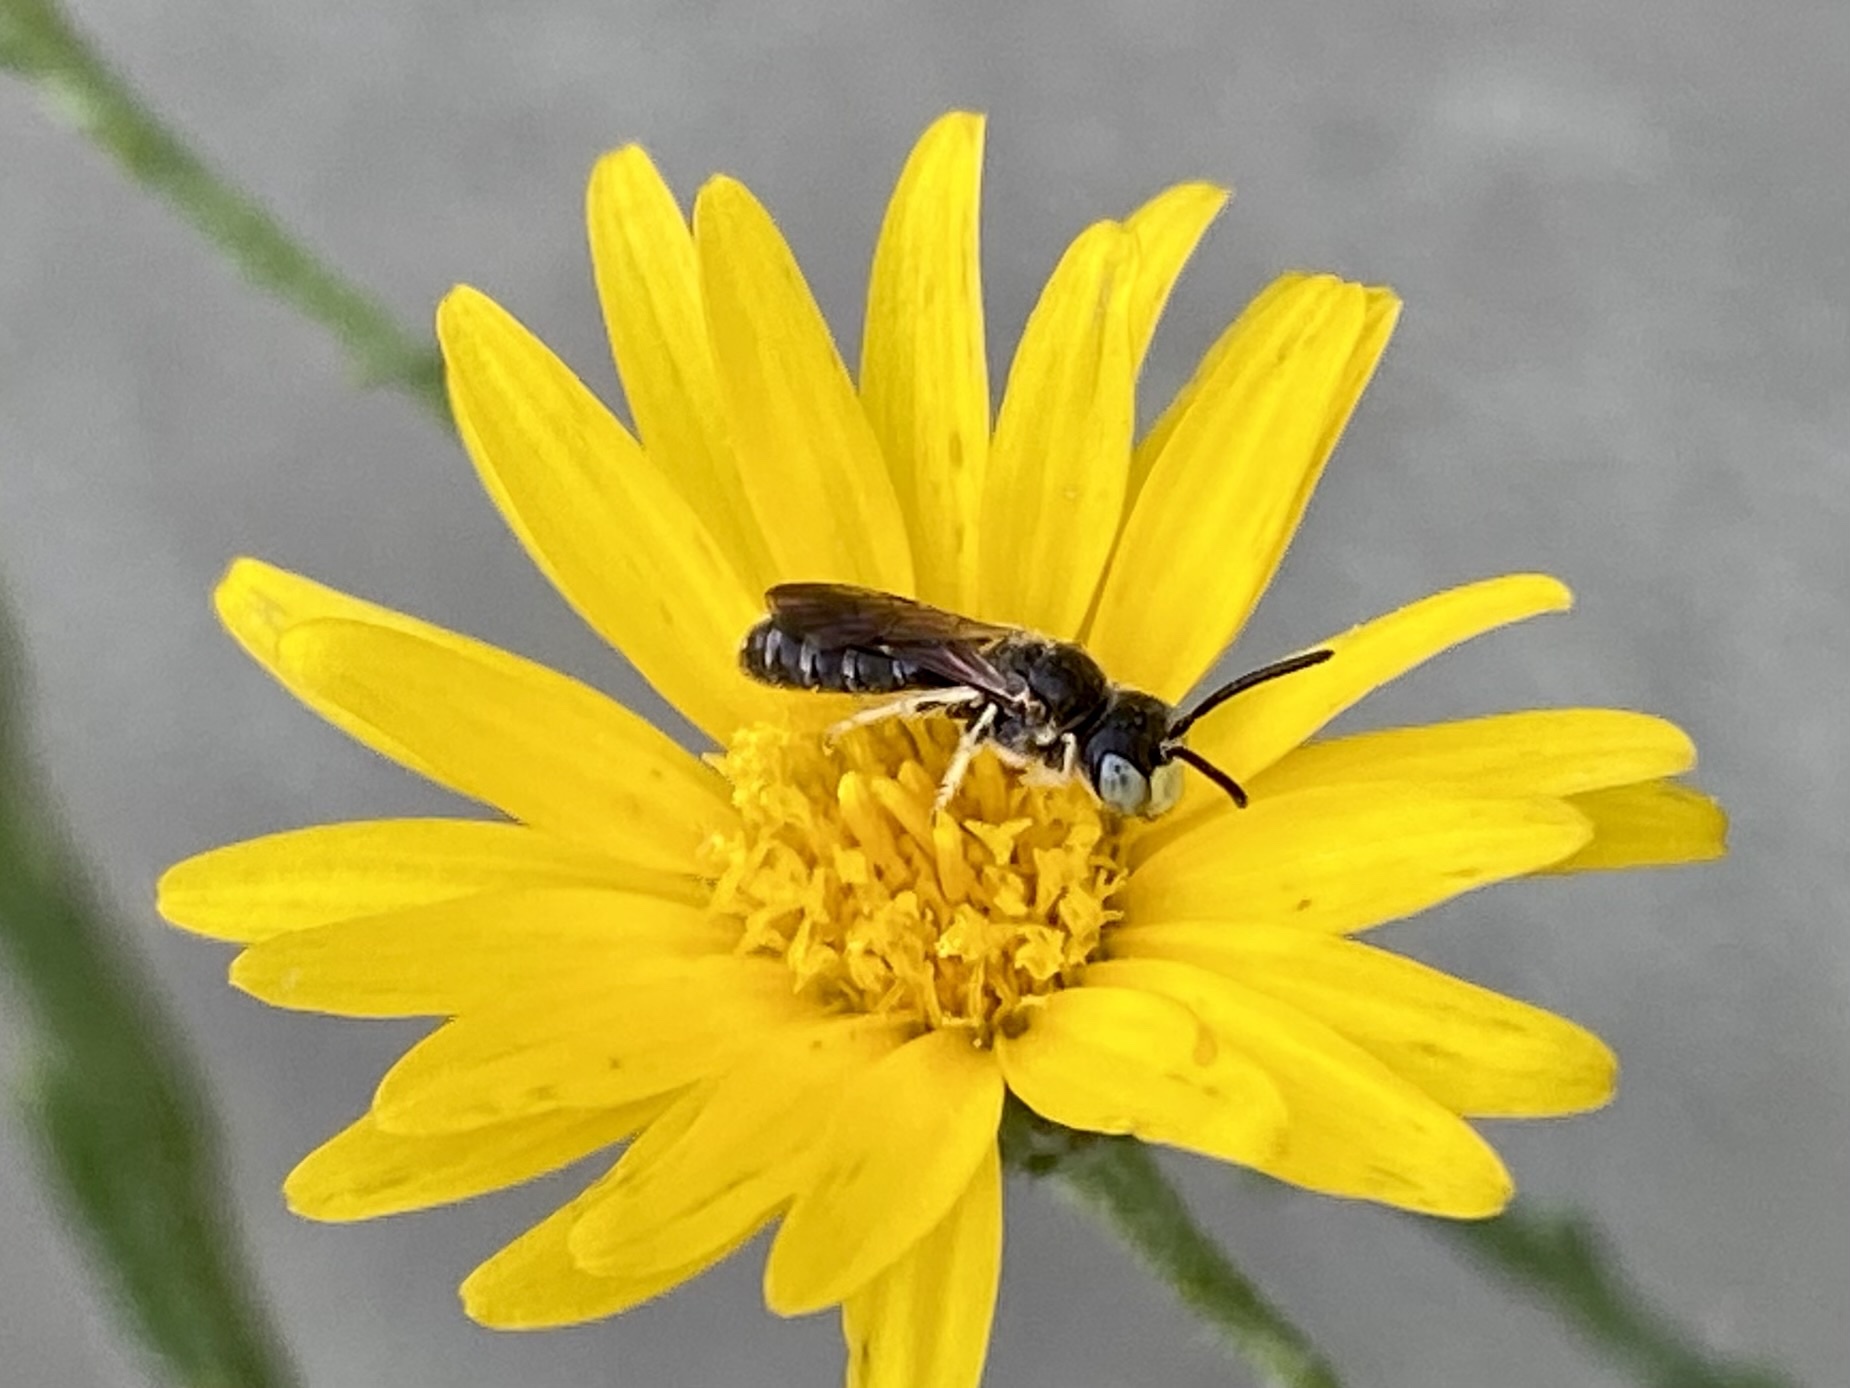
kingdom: Animalia
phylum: Arthropoda
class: Insecta
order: Hymenoptera
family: Andrenidae
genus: Pterosarus
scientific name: Pterosarus
